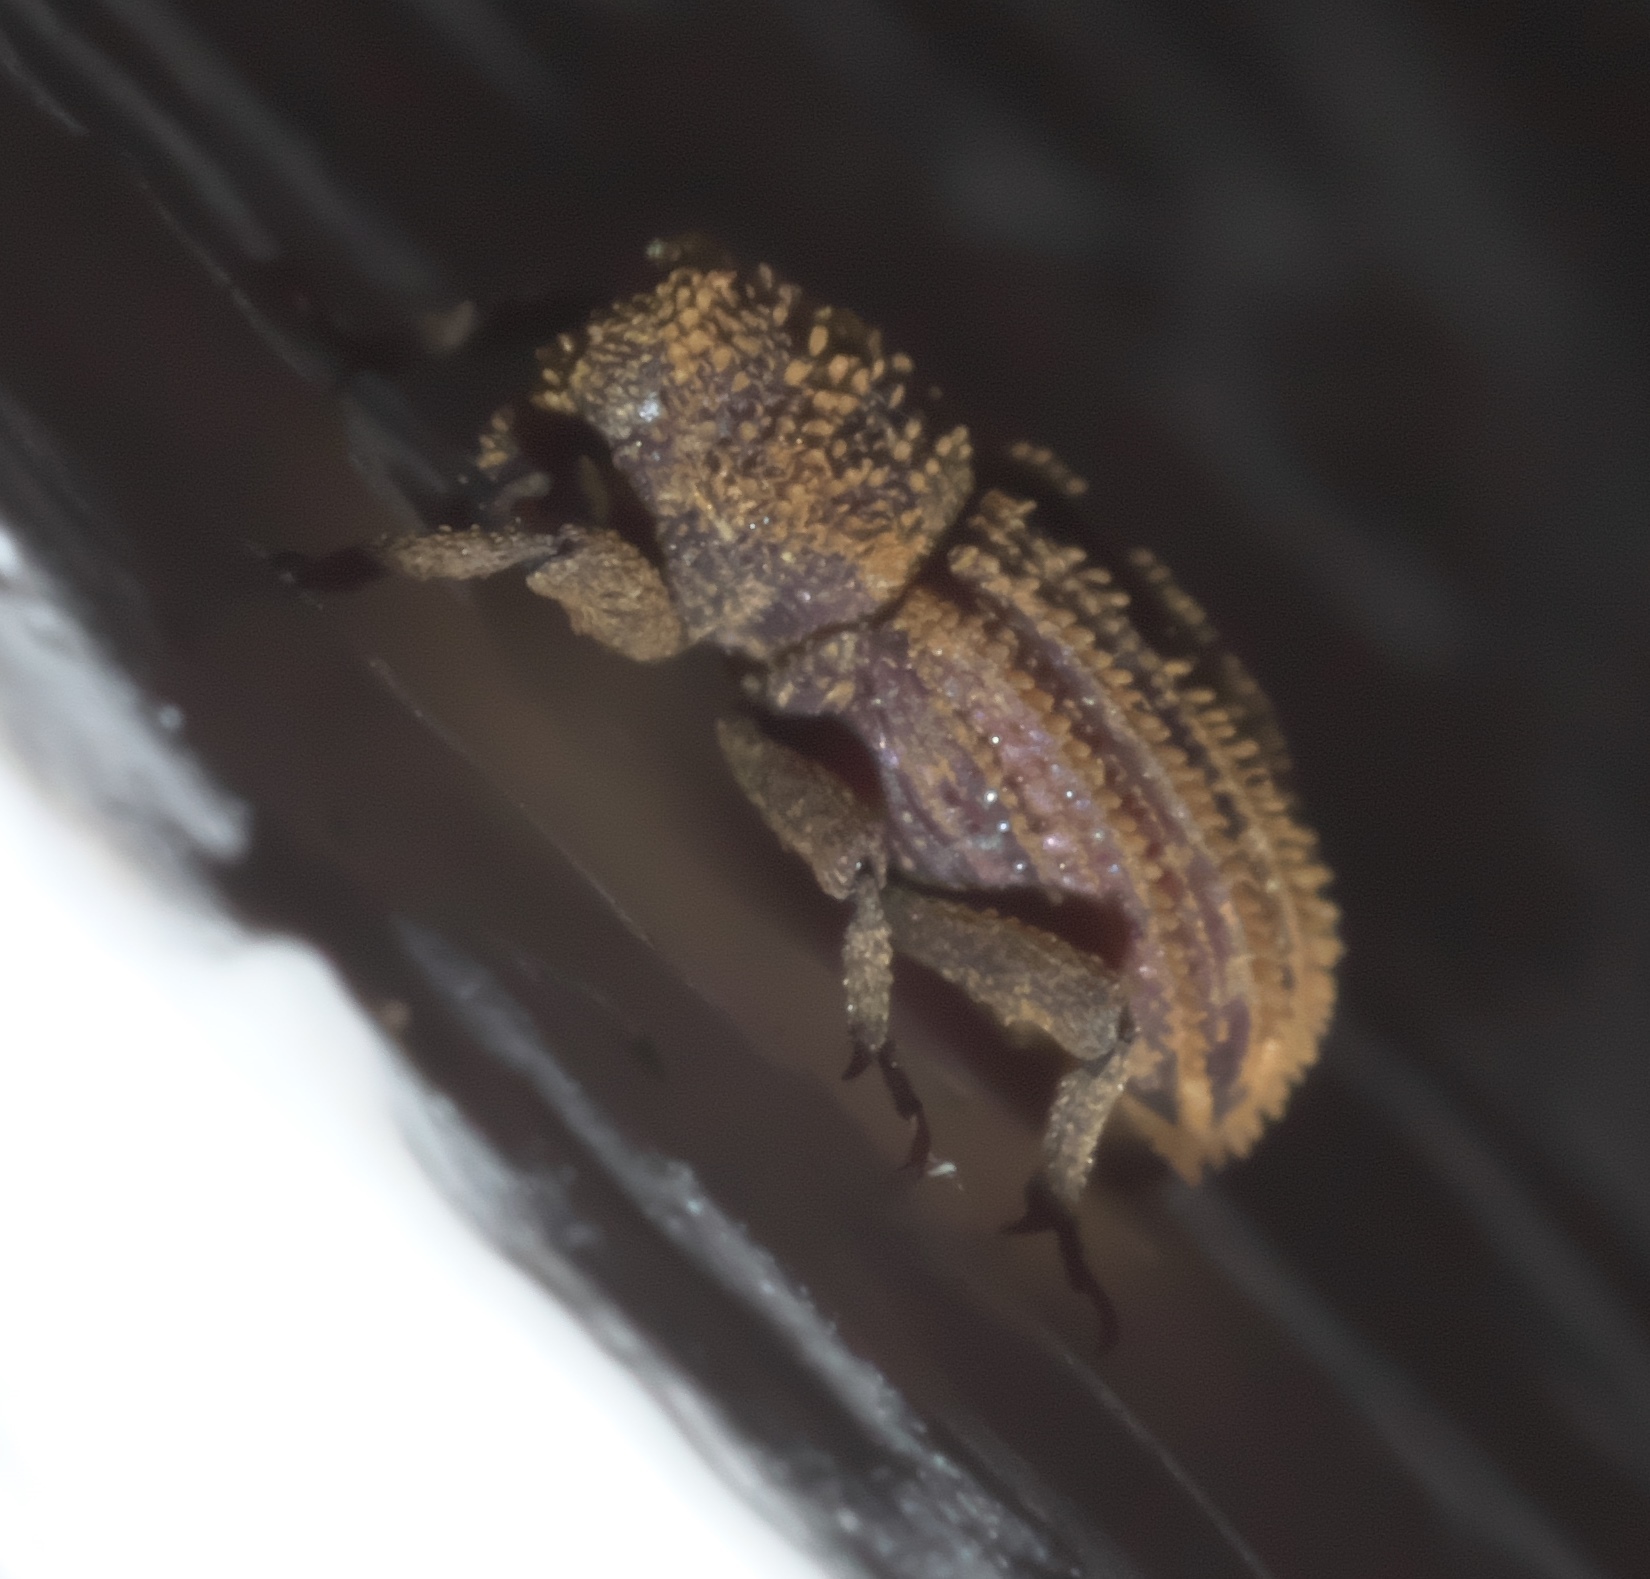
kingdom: Animalia
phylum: Arthropoda
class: Insecta
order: Coleoptera
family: Curculionidae
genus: Acamptus
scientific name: Acamptus echinus
